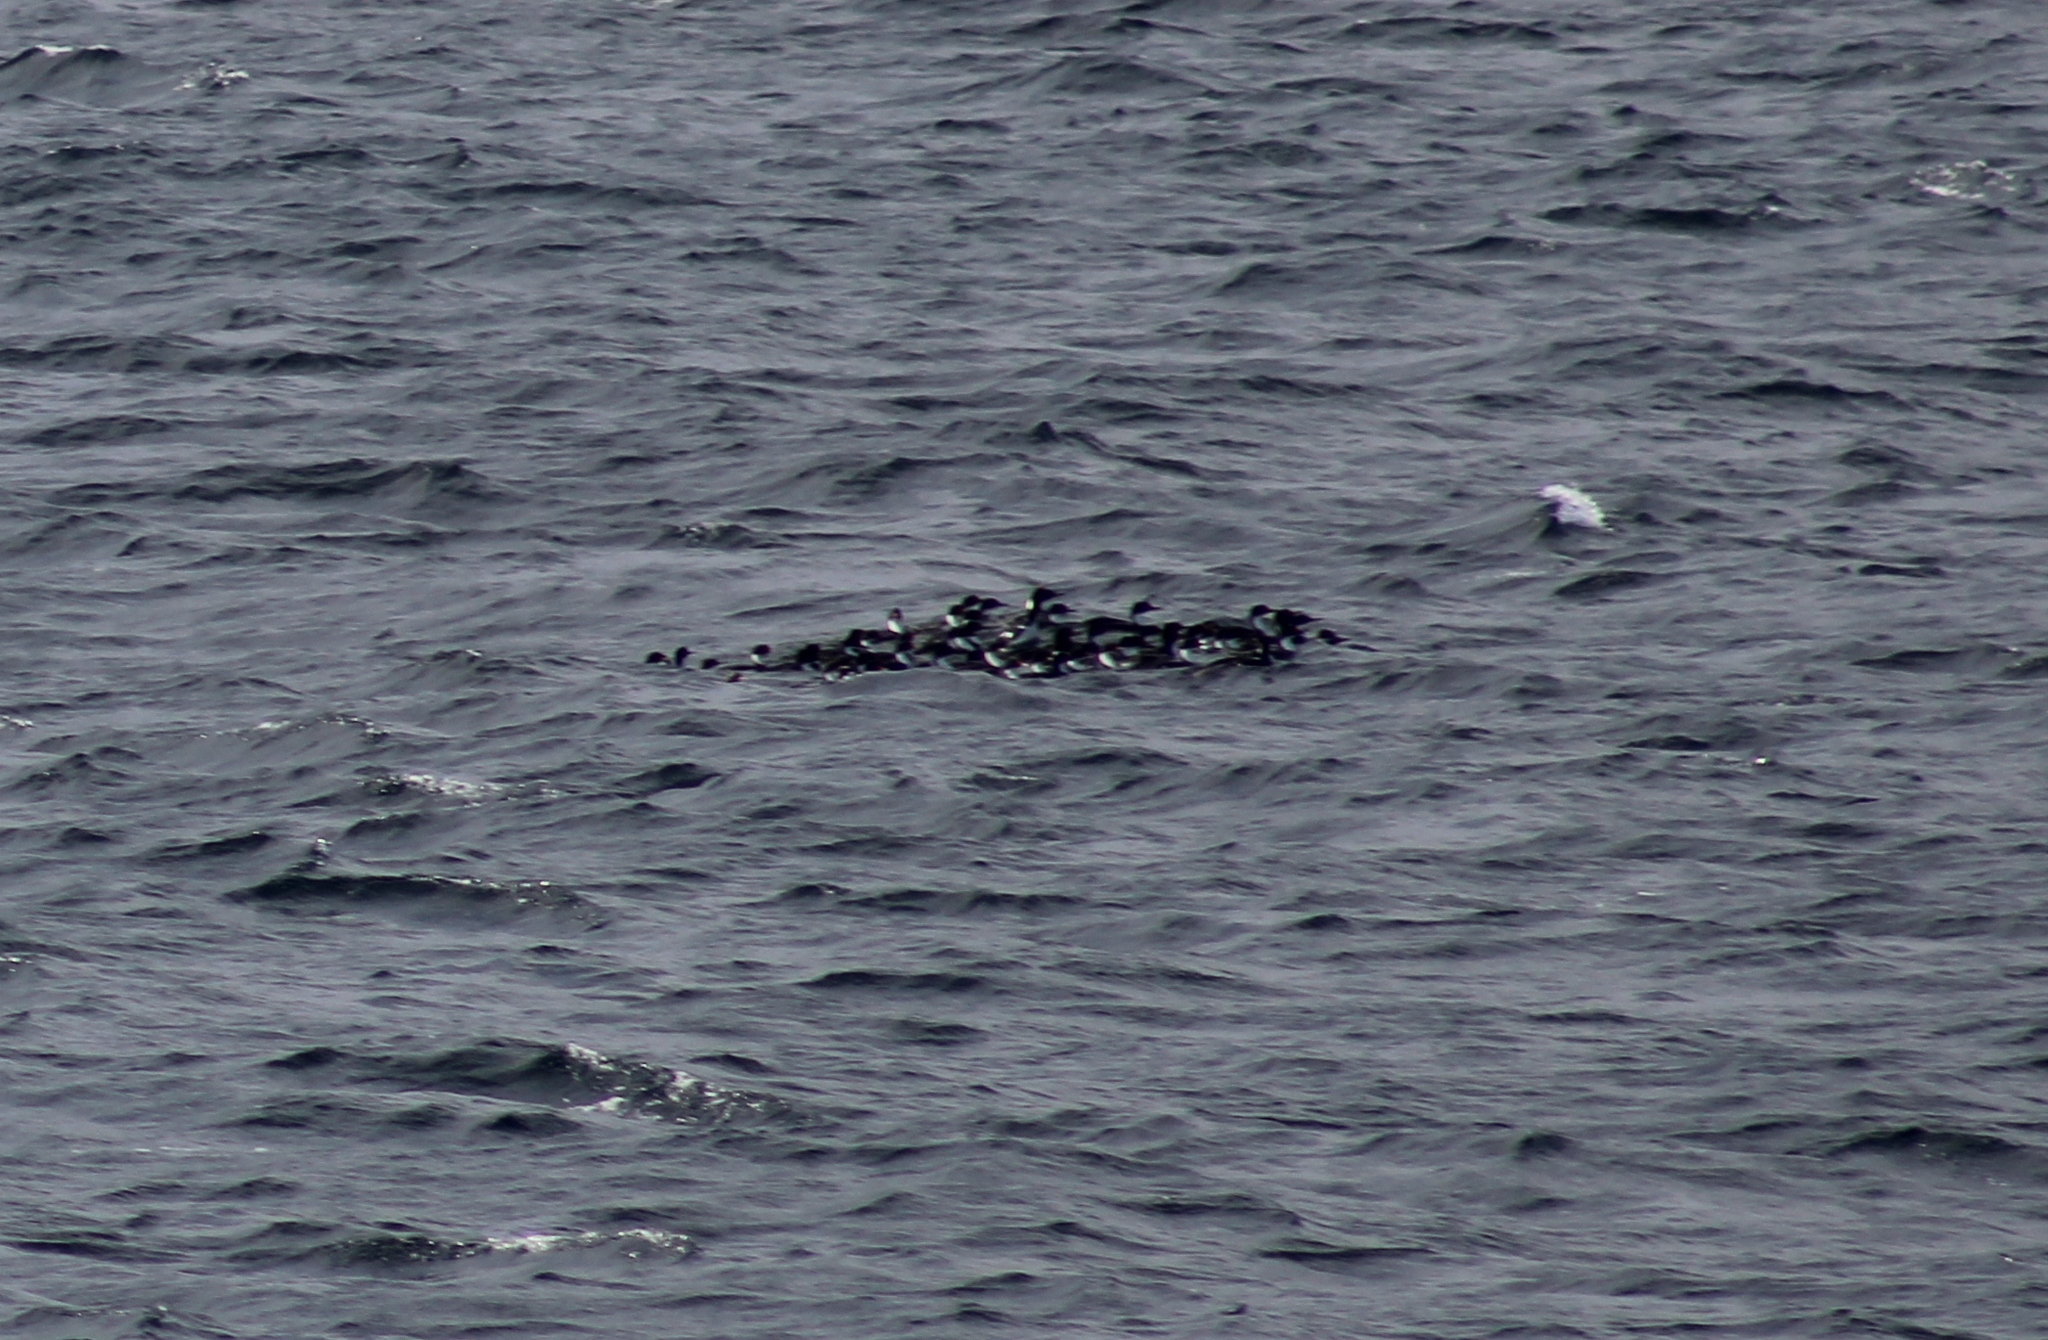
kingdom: Animalia
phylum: Chordata
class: Aves
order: Suliformes
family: Phalacrocoracidae
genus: Leucocarbo
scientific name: Leucocarbo albiventer
